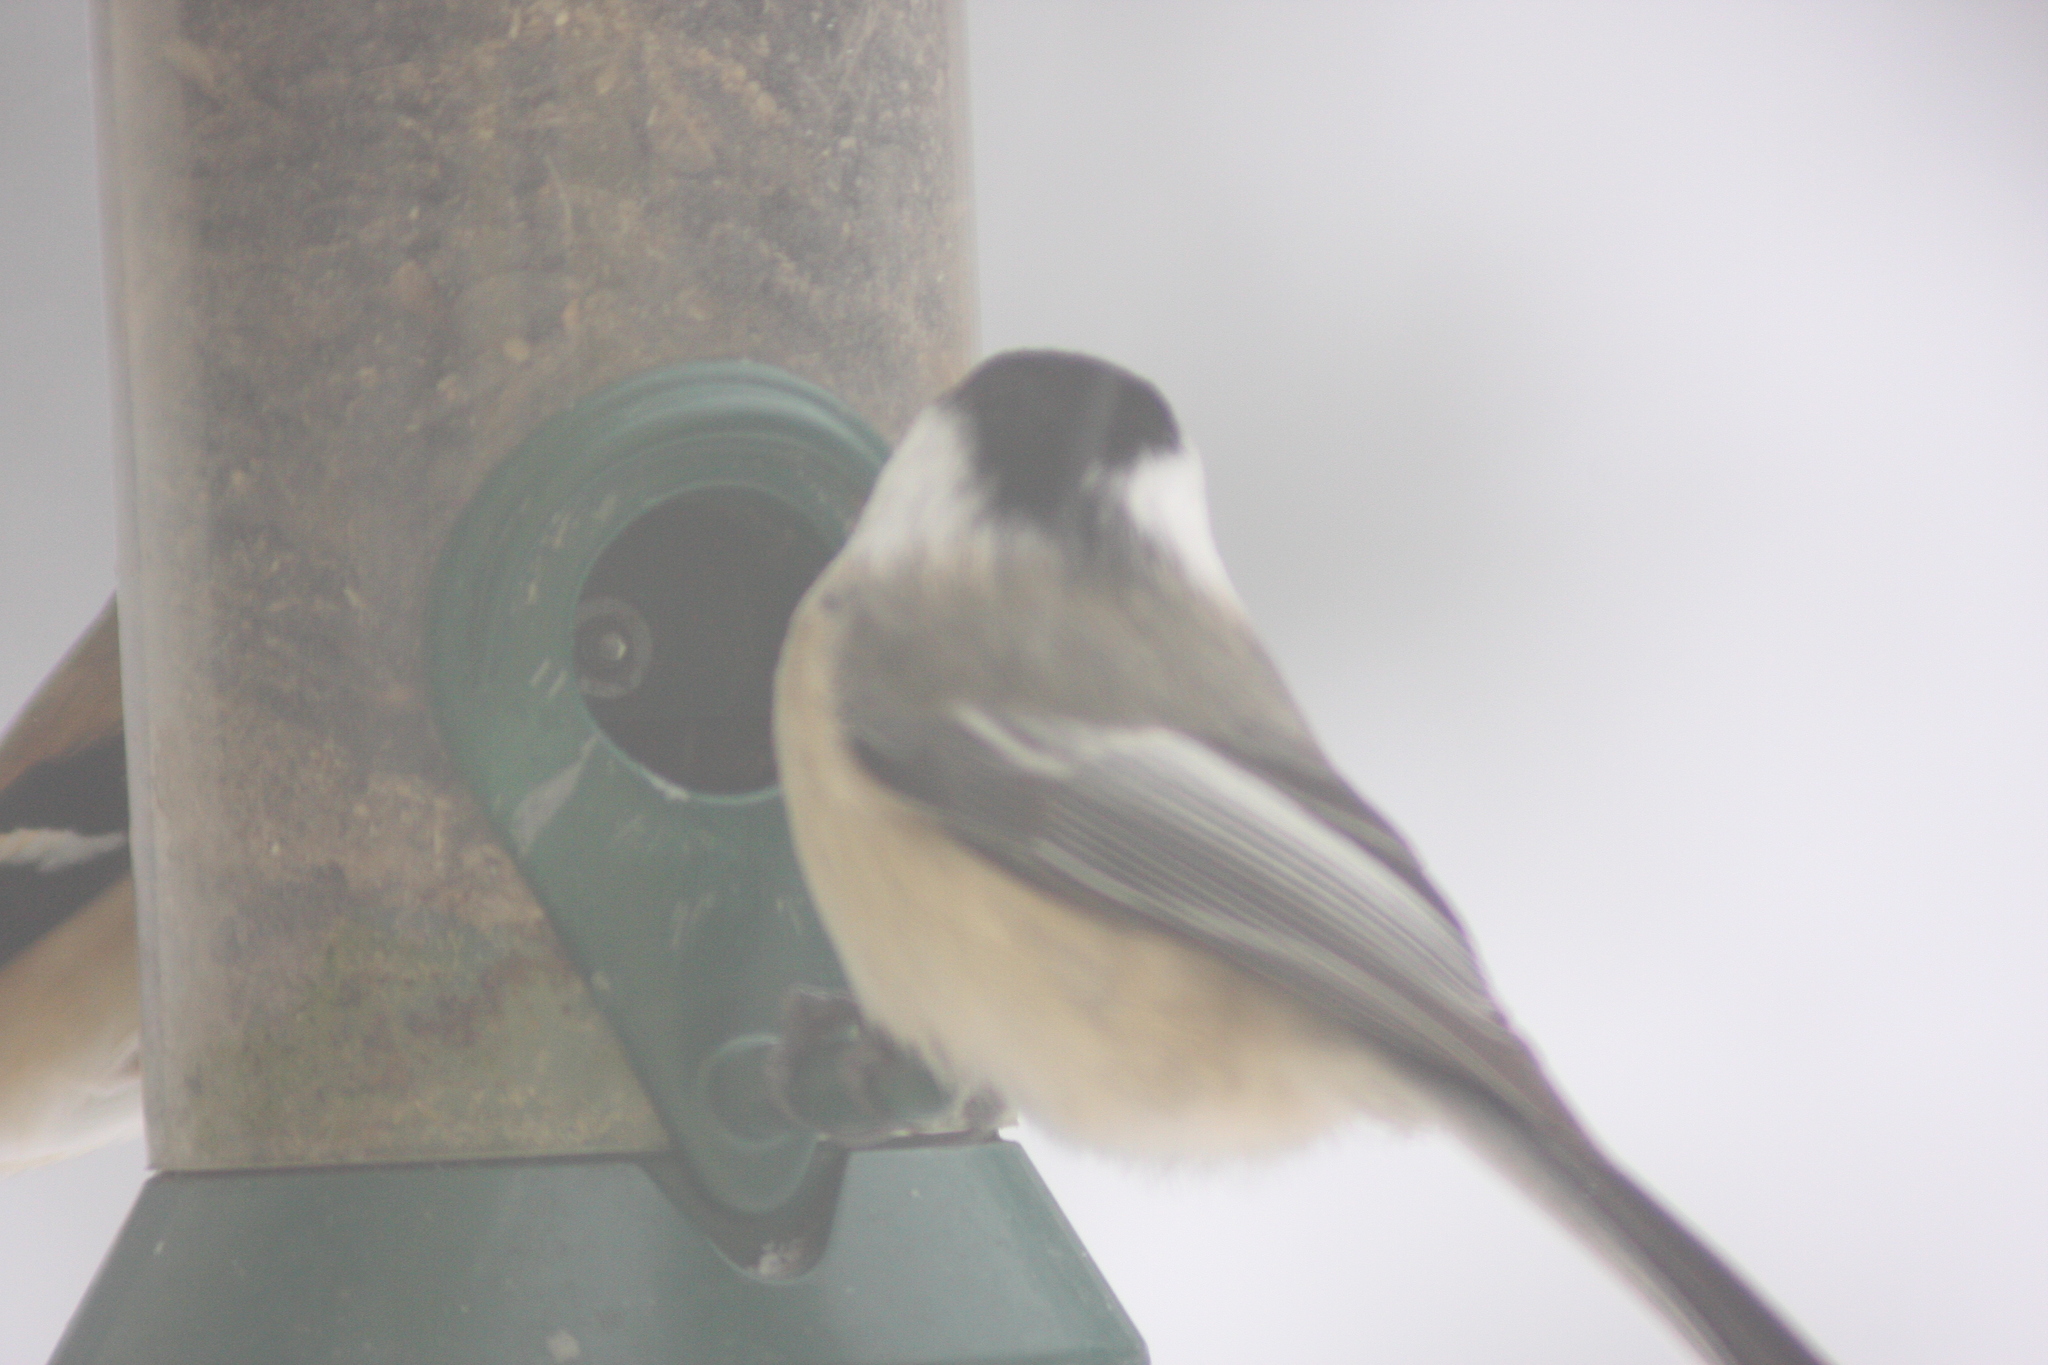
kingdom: Animalia
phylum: Chordata
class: Aves
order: Passeriformes
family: Paridae
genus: Poecile
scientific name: Poecile atricapillus
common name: Black-capped chickadee
